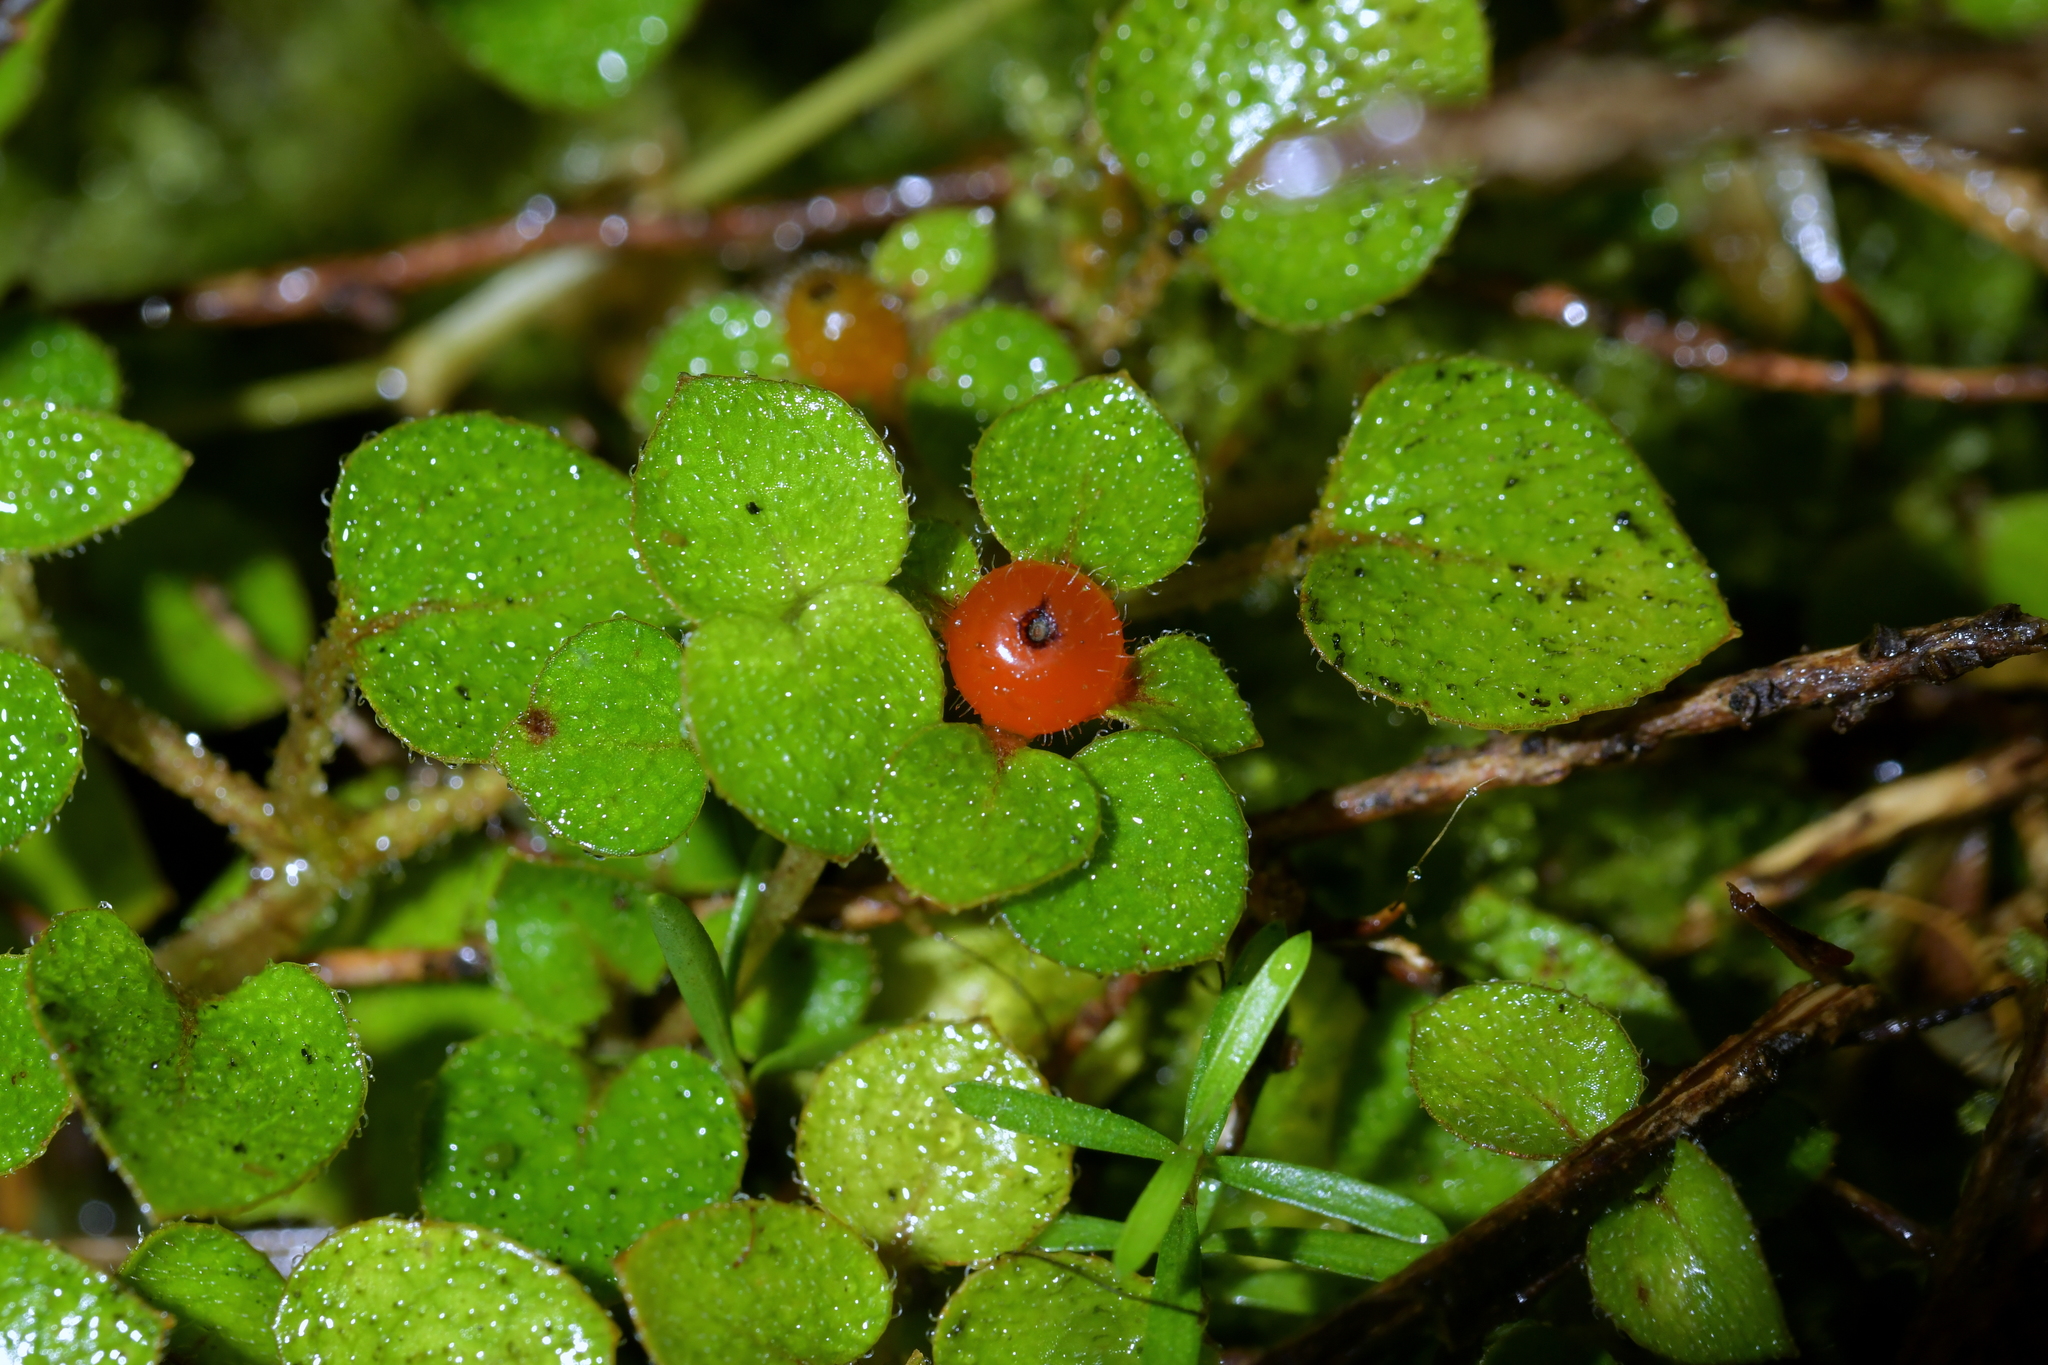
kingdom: Plantae
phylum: Tracheophyta
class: Magnoliopsida
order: Gentianales
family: Rubiaceae
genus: Nertera
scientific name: Nertera dichondrifolia
